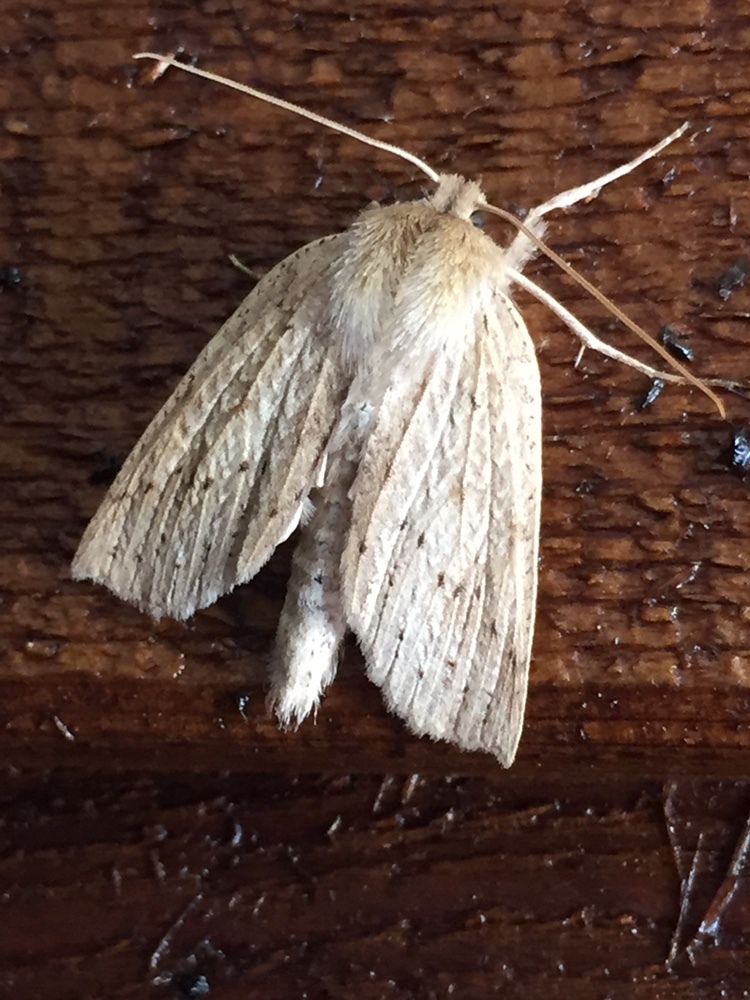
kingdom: Animalia
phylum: Arthropoda
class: Insecta
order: Lepidoptera
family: Geometridae
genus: Declana
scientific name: Declana leptomera
